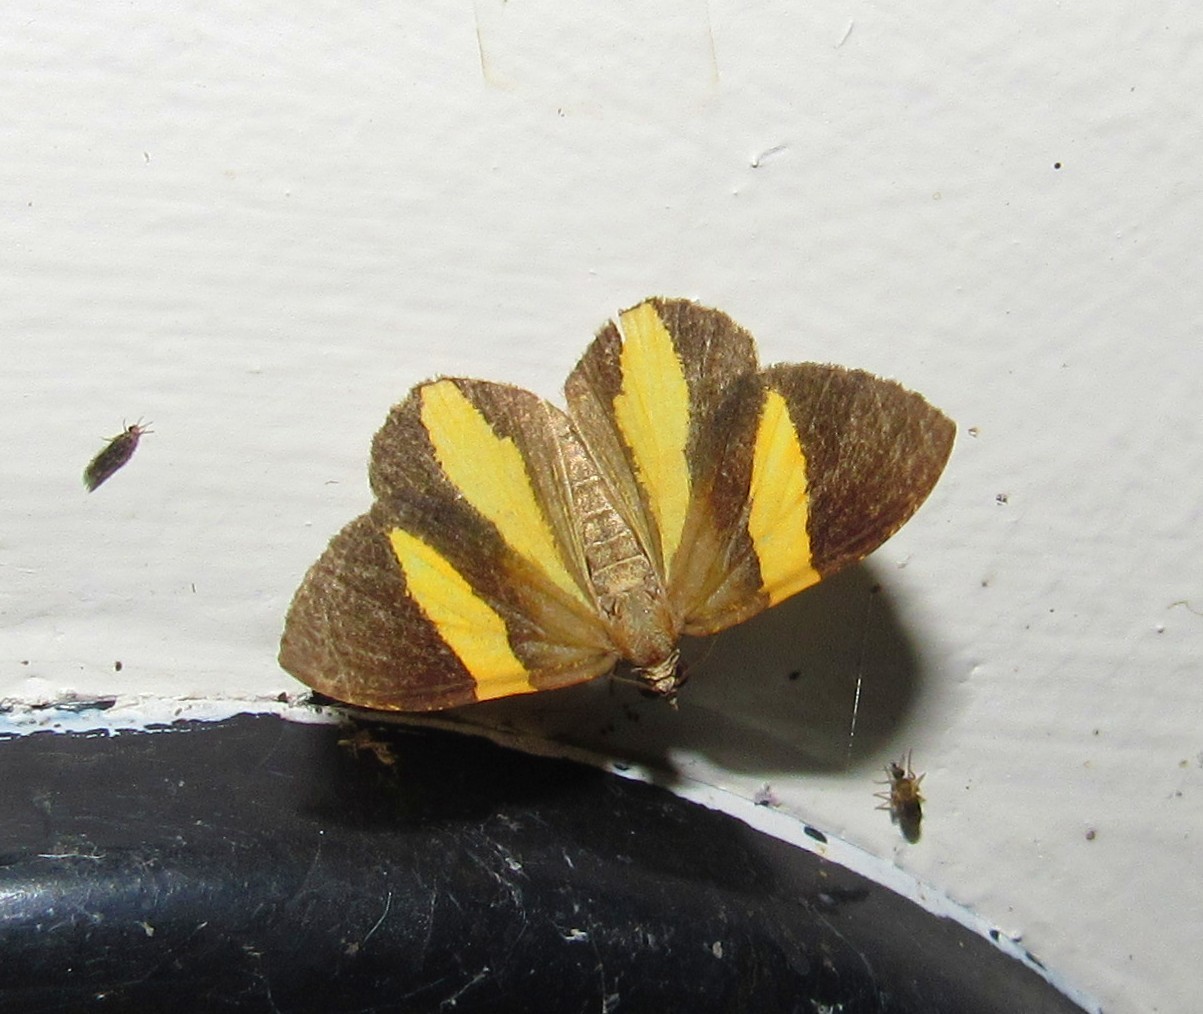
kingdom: Animalia
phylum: Arthropoda
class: Insecta
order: Lepidoptera
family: Geometridae
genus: Hagnagora
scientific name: Hagnagora discordata
